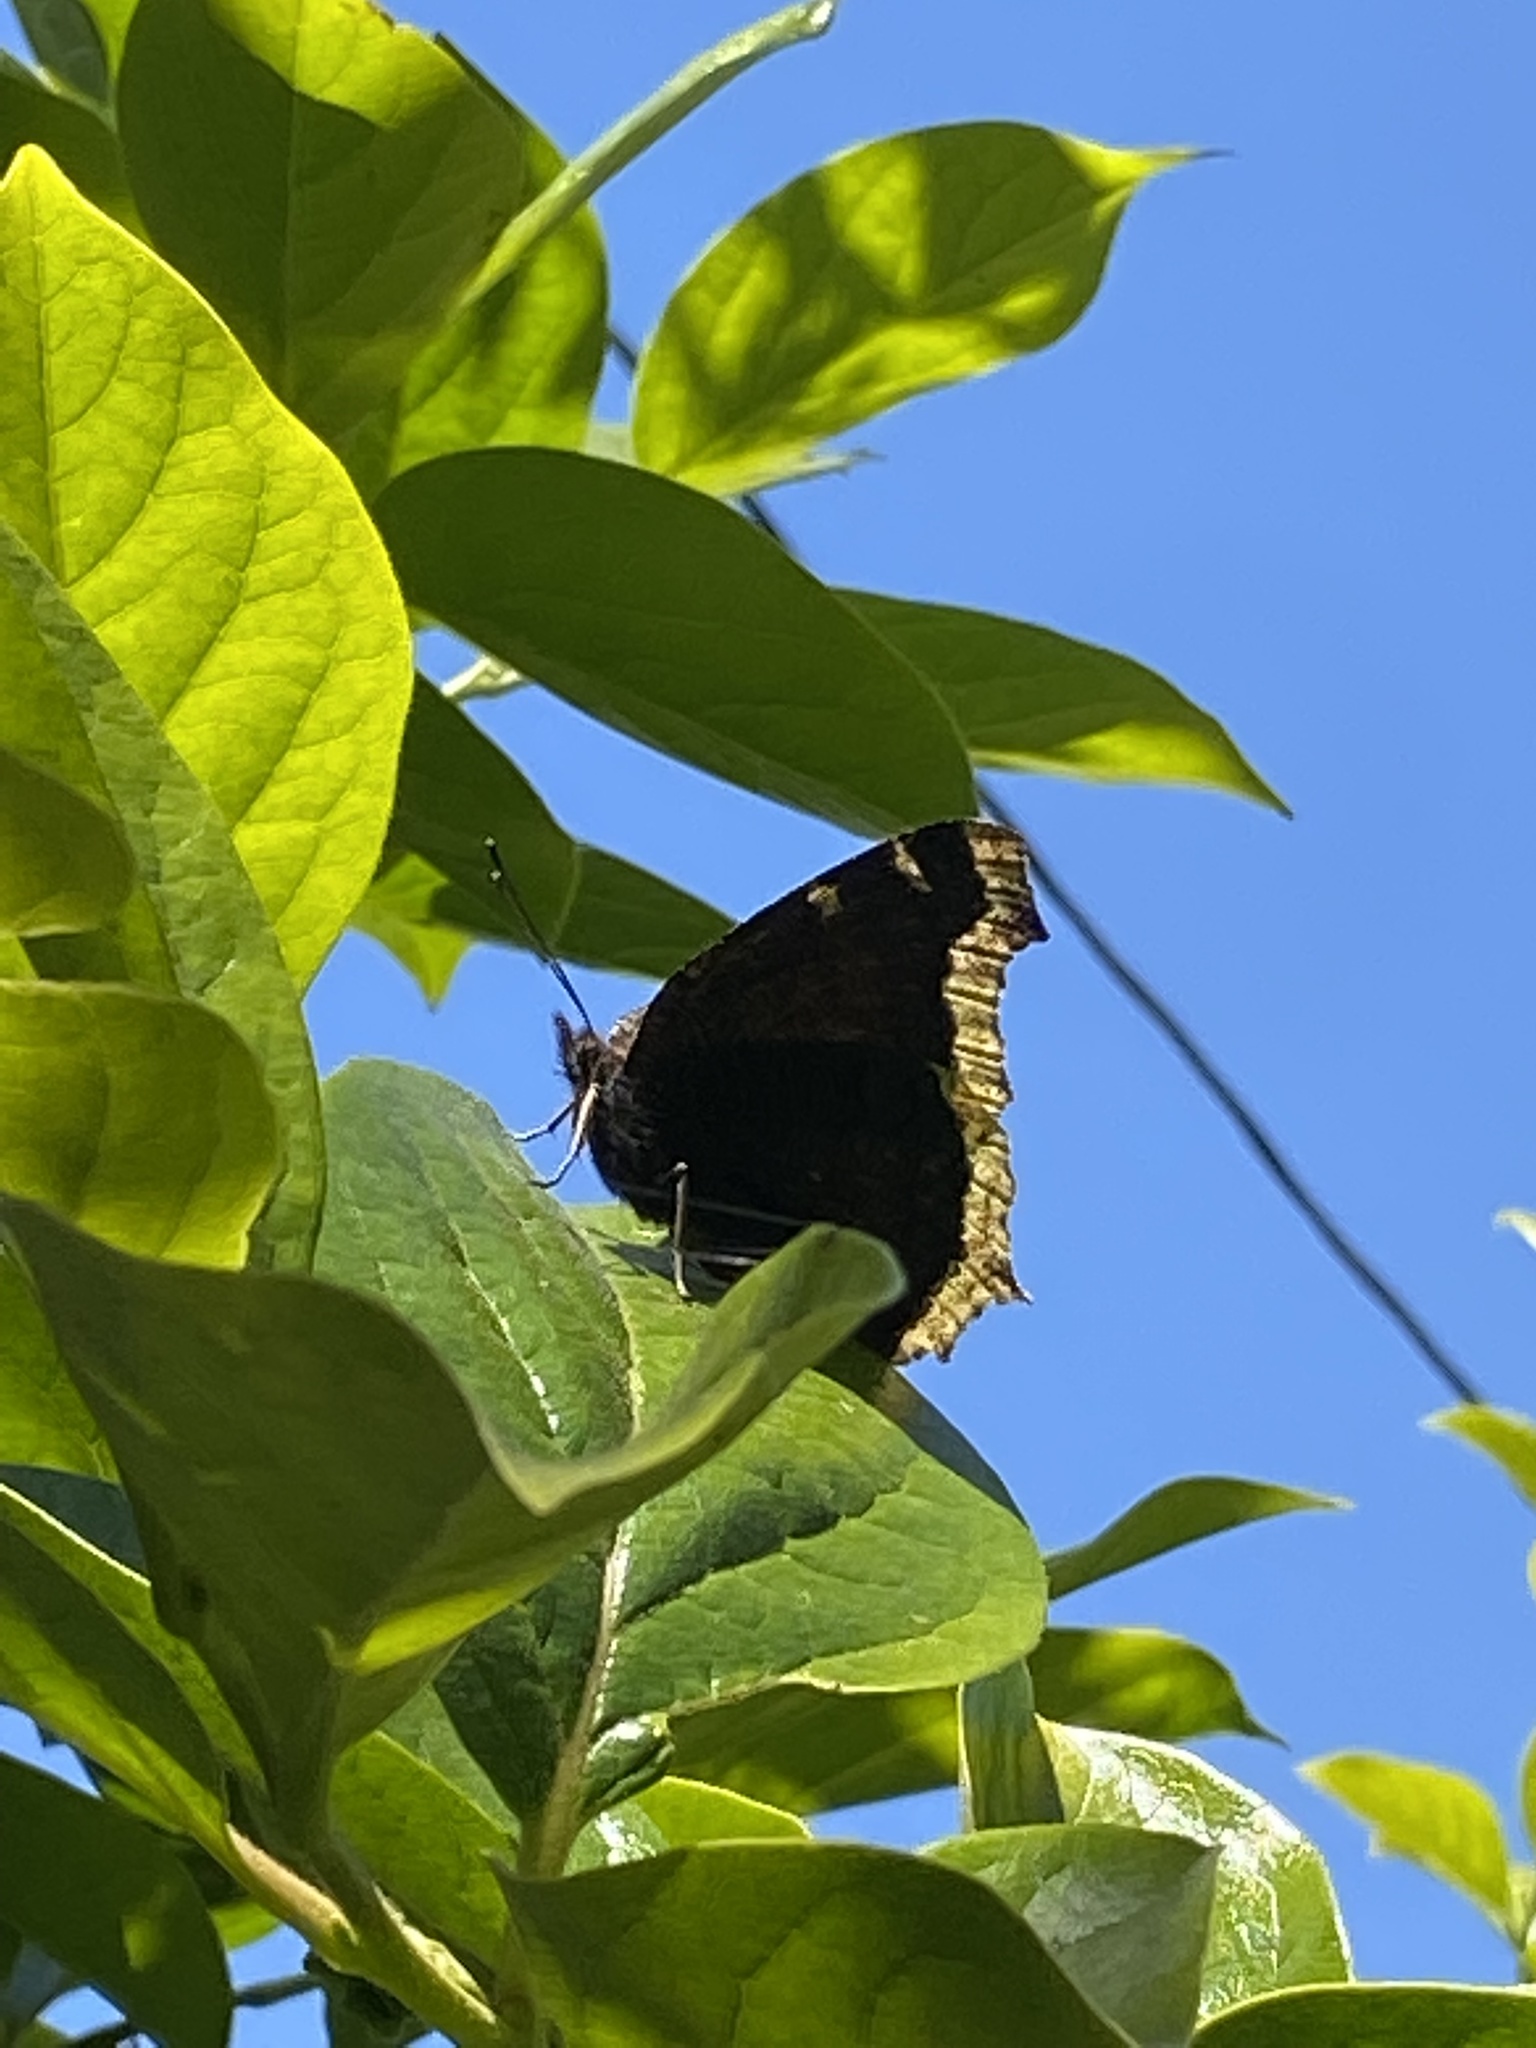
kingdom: Animalia
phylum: Arthropoda
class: Insecta
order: Lepidoptera
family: Nymphalidae
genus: Nymphalis
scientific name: Nymphalis antiopa
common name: Camberwell beauty
